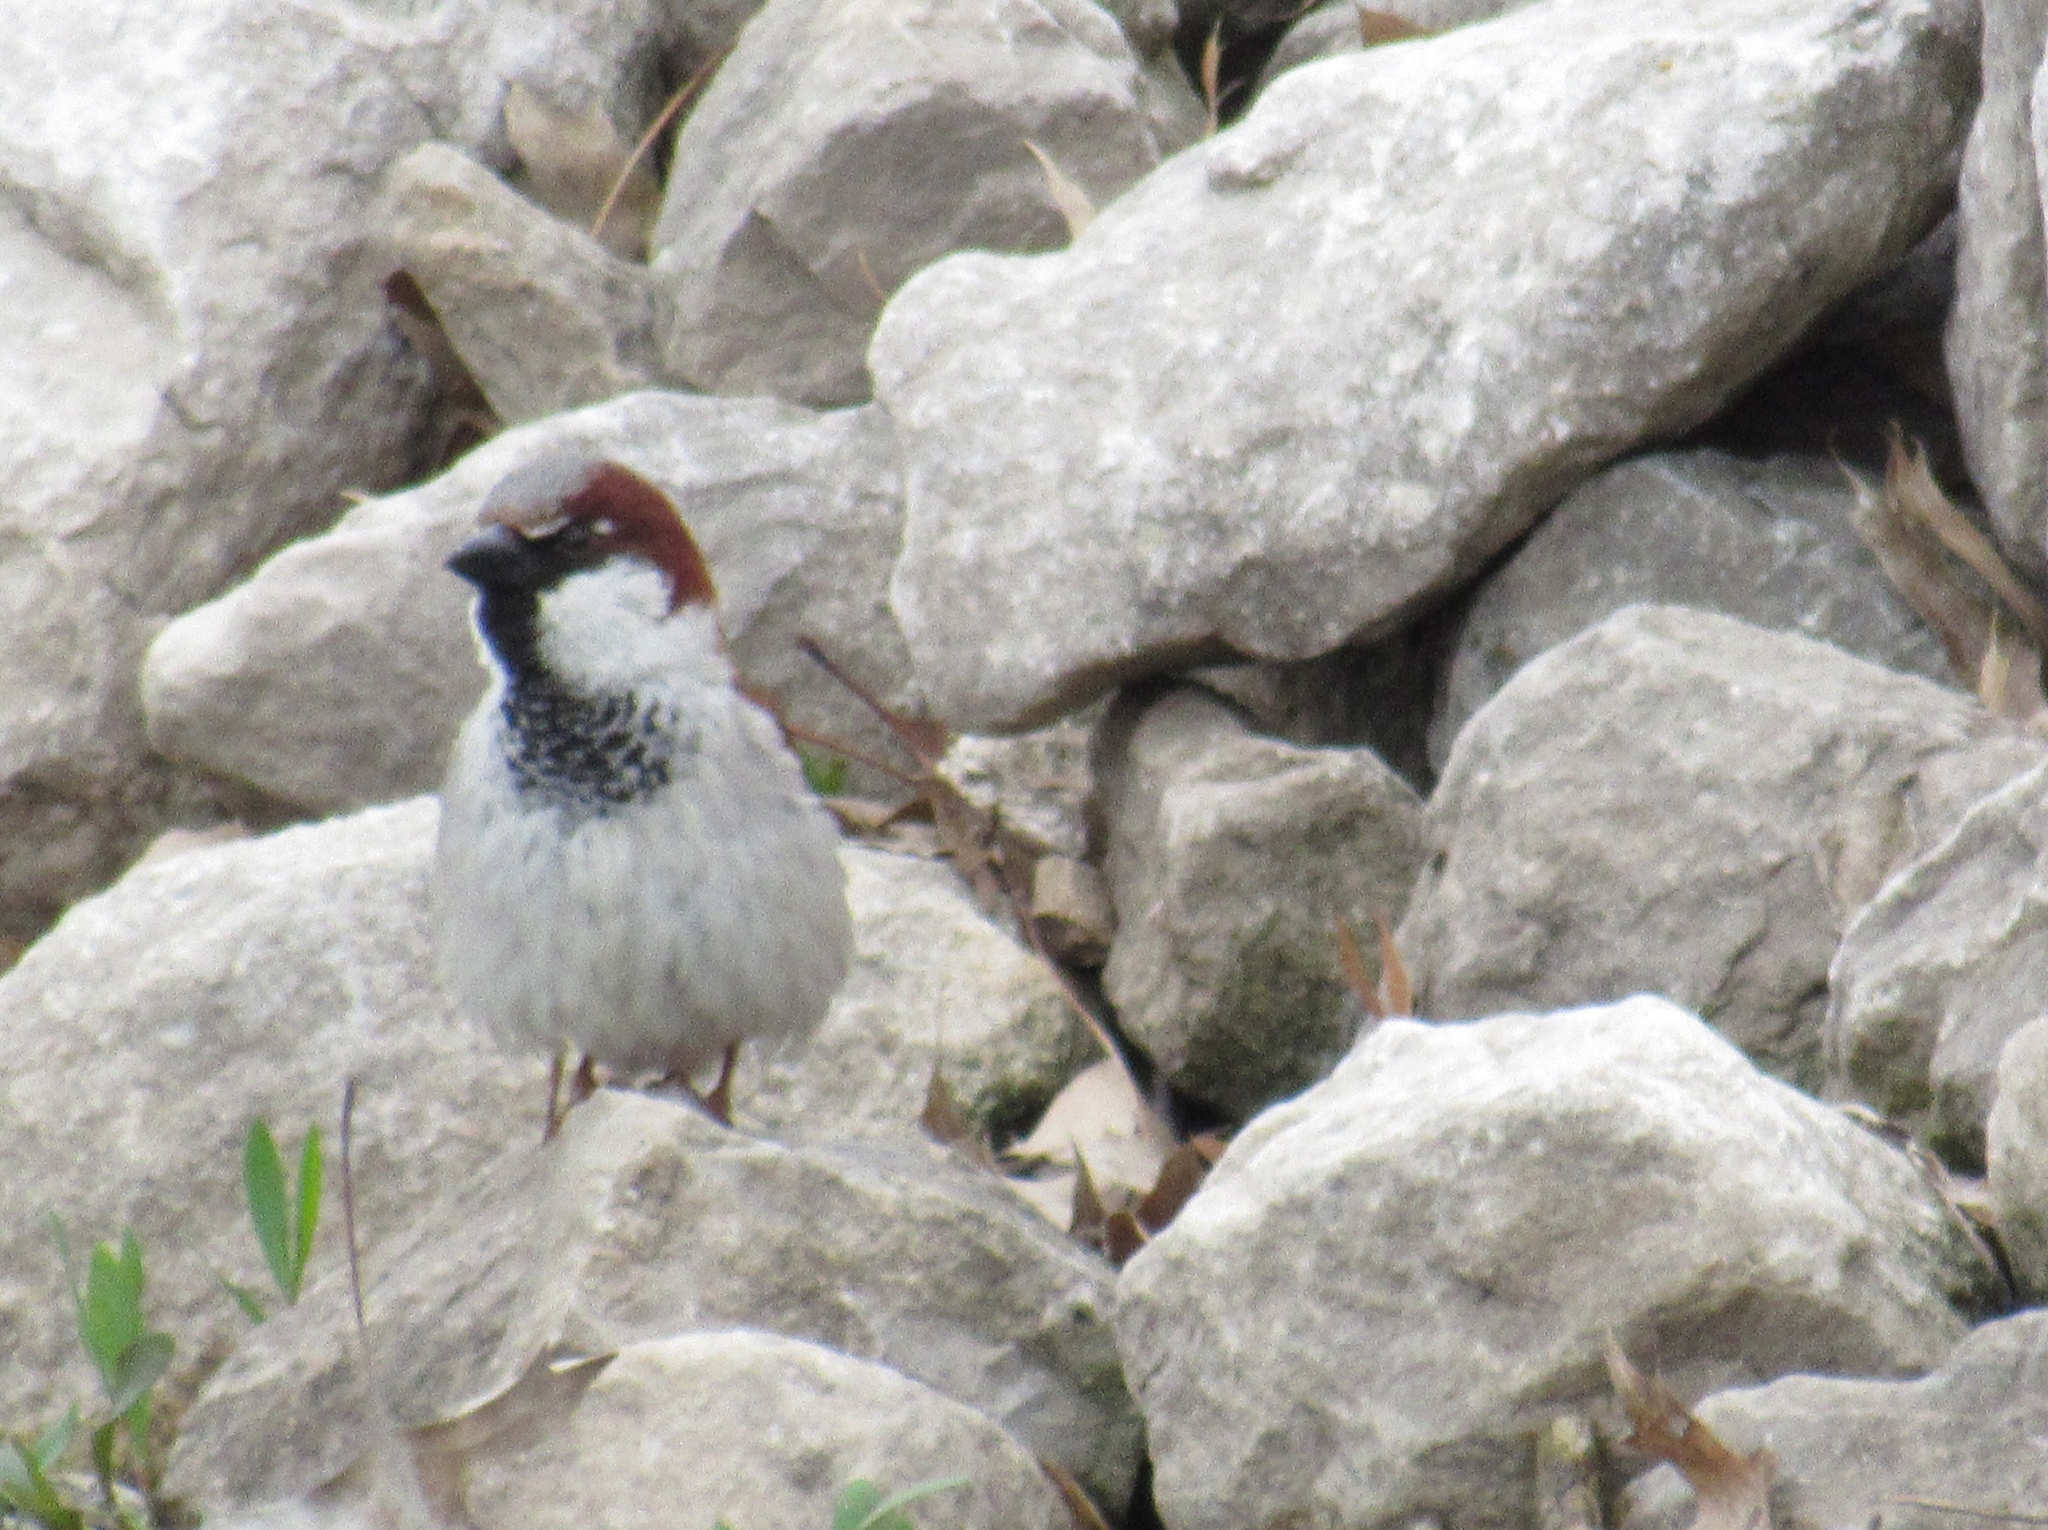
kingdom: Animalia
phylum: Chordata
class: Aves
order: Passeriformes
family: Passeridae
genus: Passer
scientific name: Passer domesticus
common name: House sparrow
